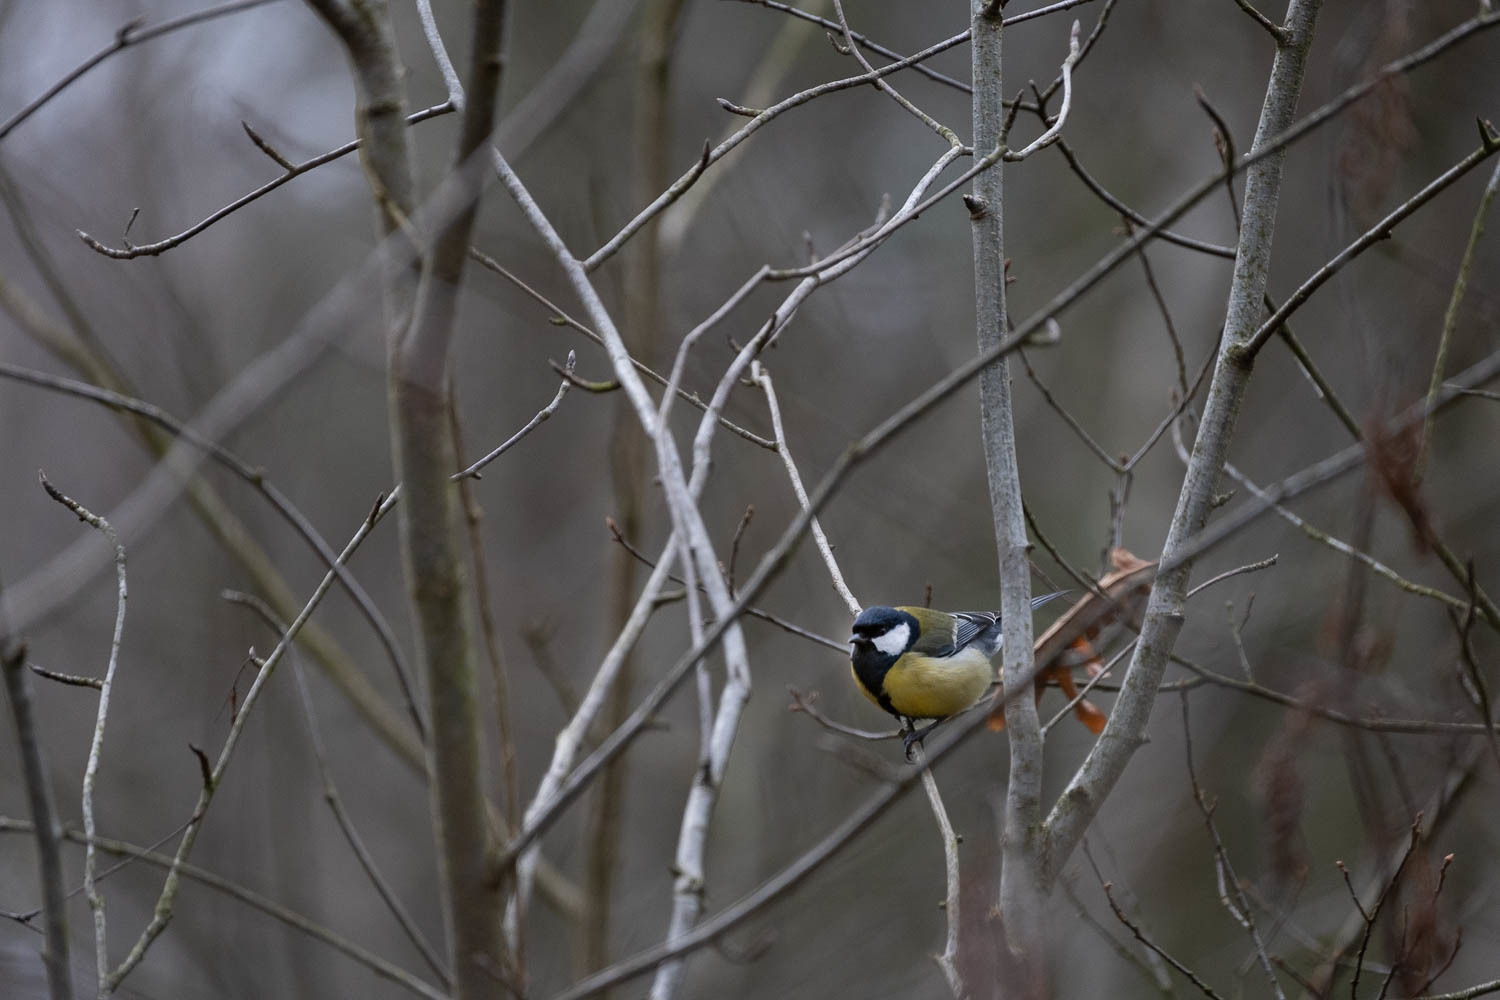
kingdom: Animalia
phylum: Chordata
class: Aves
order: Passeriformes
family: Paridae
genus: Parus
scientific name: Parus major
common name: Great tit
